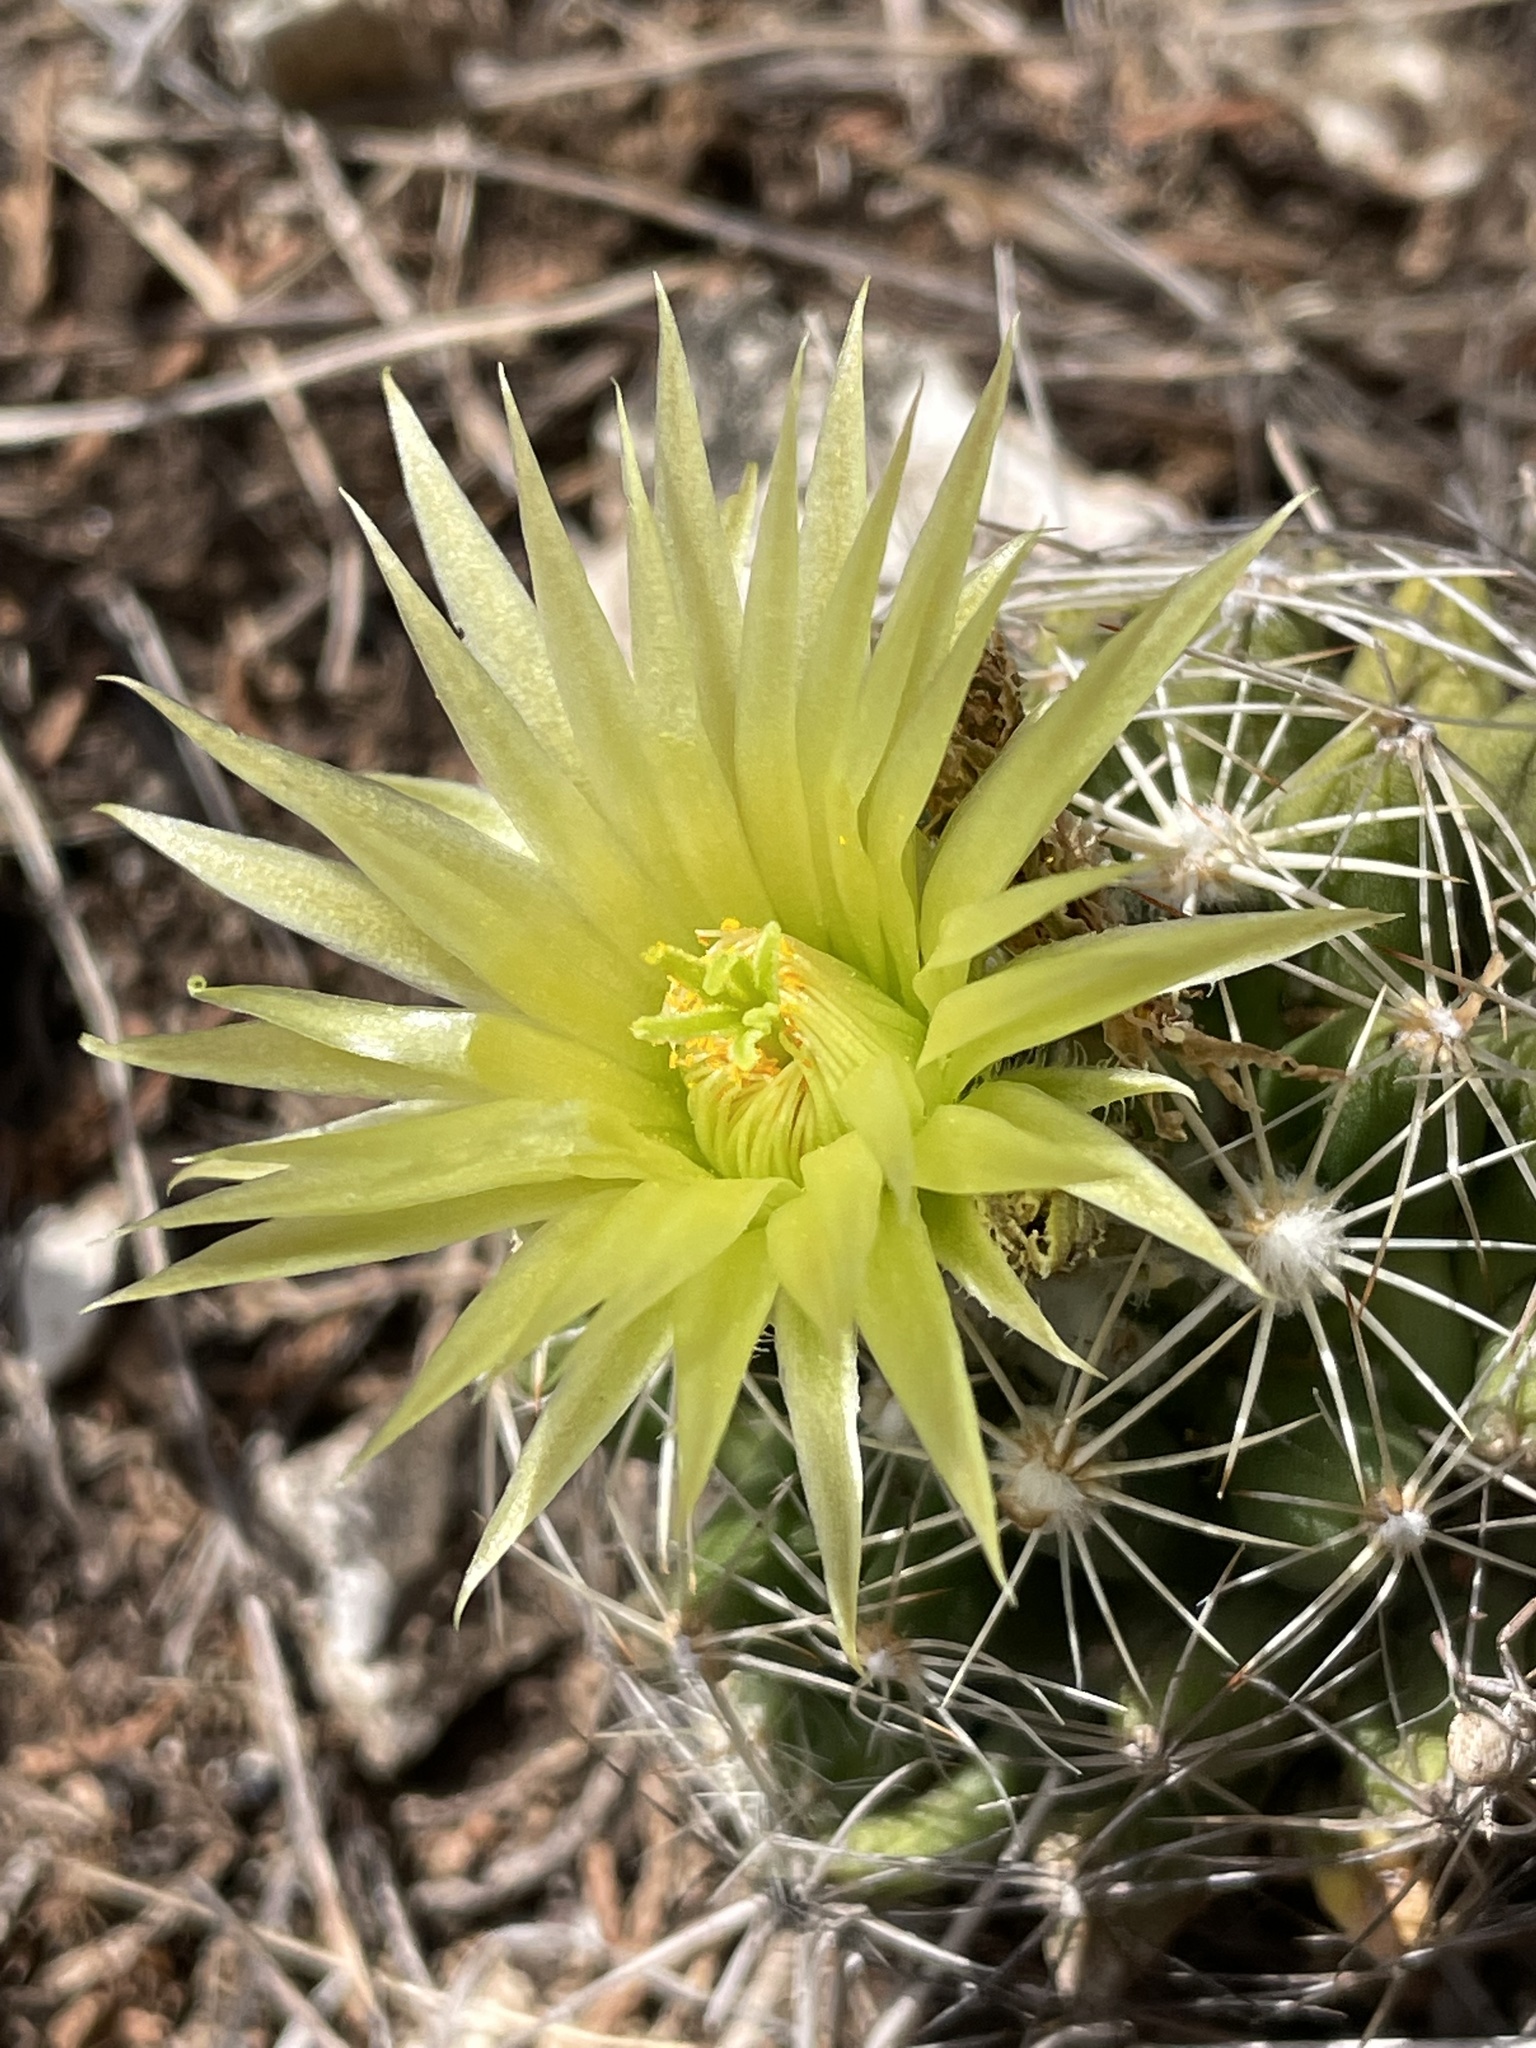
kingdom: Plantae
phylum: Tracheophyta
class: Magnoliopsida
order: Caryophyllales
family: Cactaceae
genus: Pelecyphora
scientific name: Pelecyphora missouriensis
